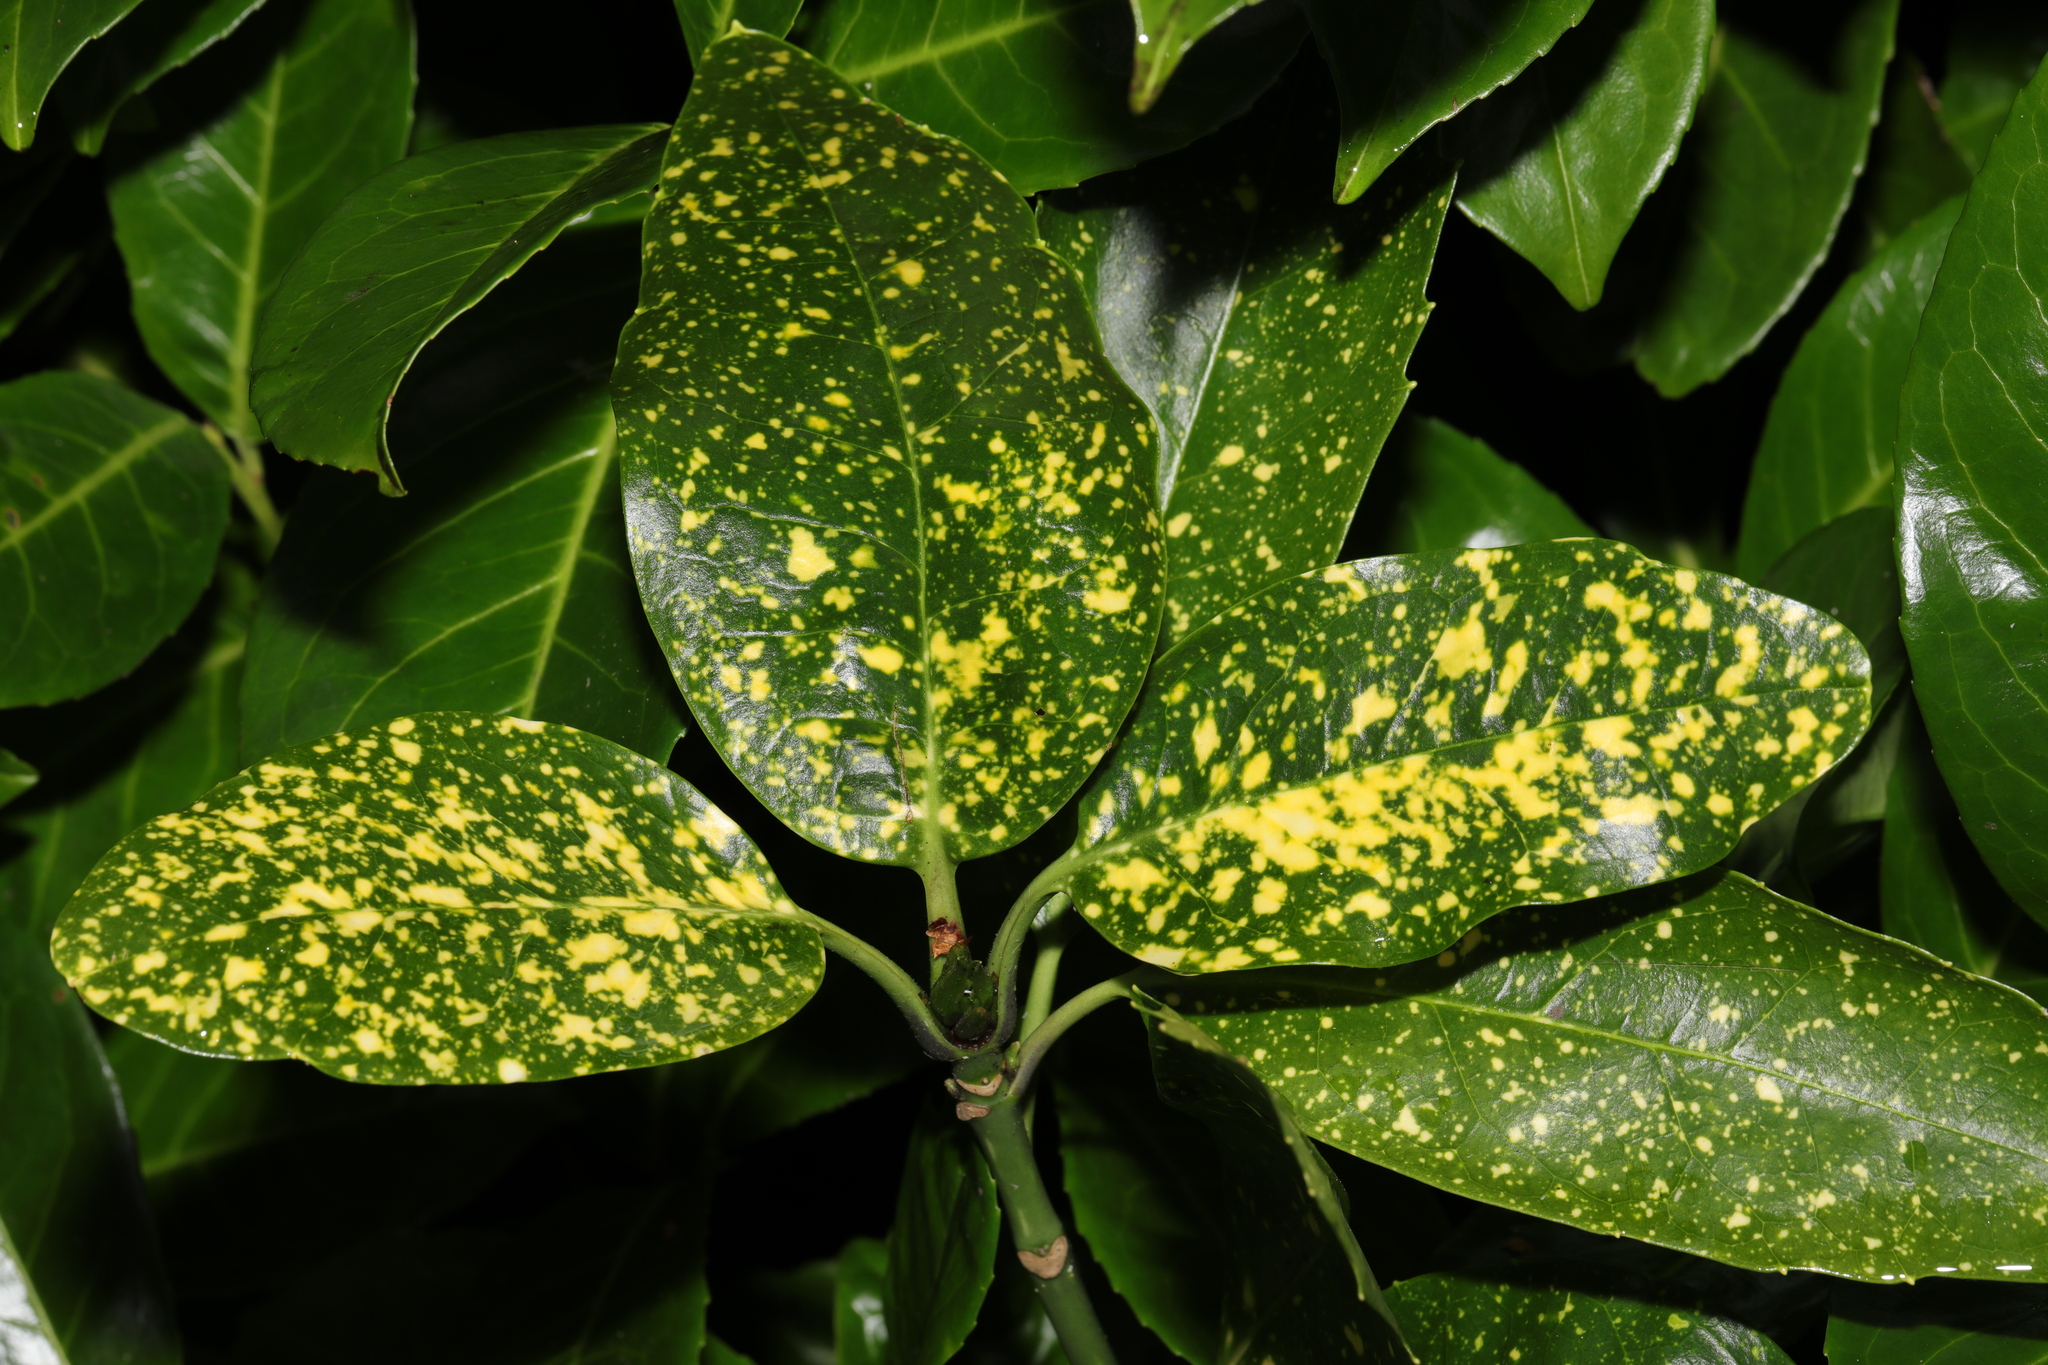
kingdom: Plantae
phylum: Tracheophyta
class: Magnoliopsida
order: Garryales
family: Garryaceae
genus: Aucuba
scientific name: Aucuba japonica
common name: Spotted-laurel
